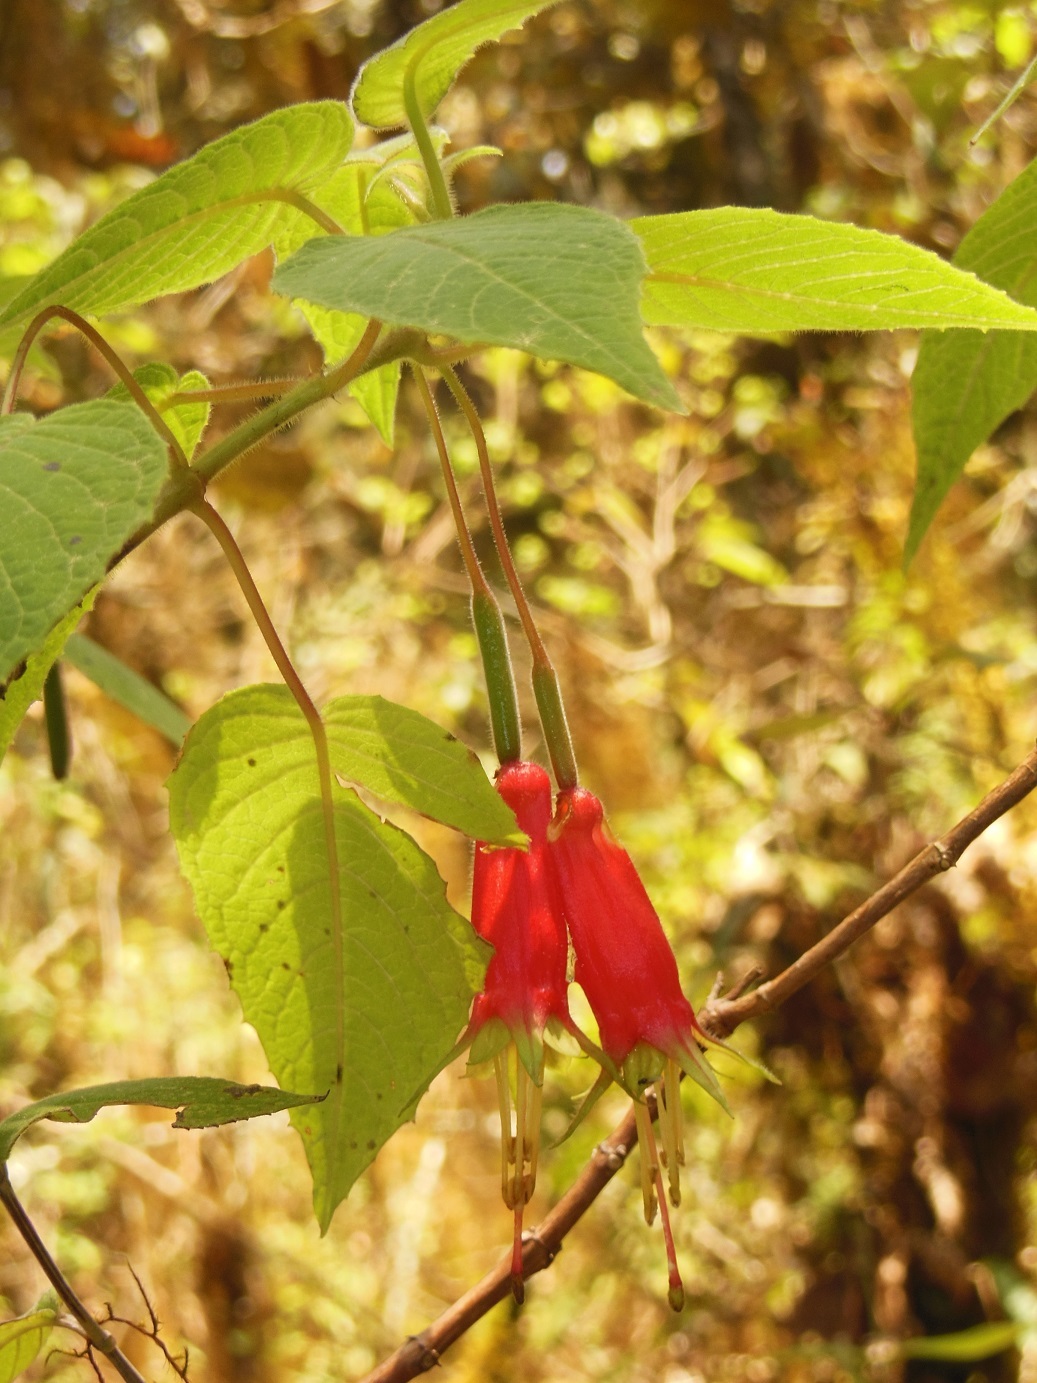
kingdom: Plantae
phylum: Tracheophyta
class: Magnoliopsida
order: Myrtales
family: Onagraceae
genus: Fuchsia
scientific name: Fuchsia splendens
